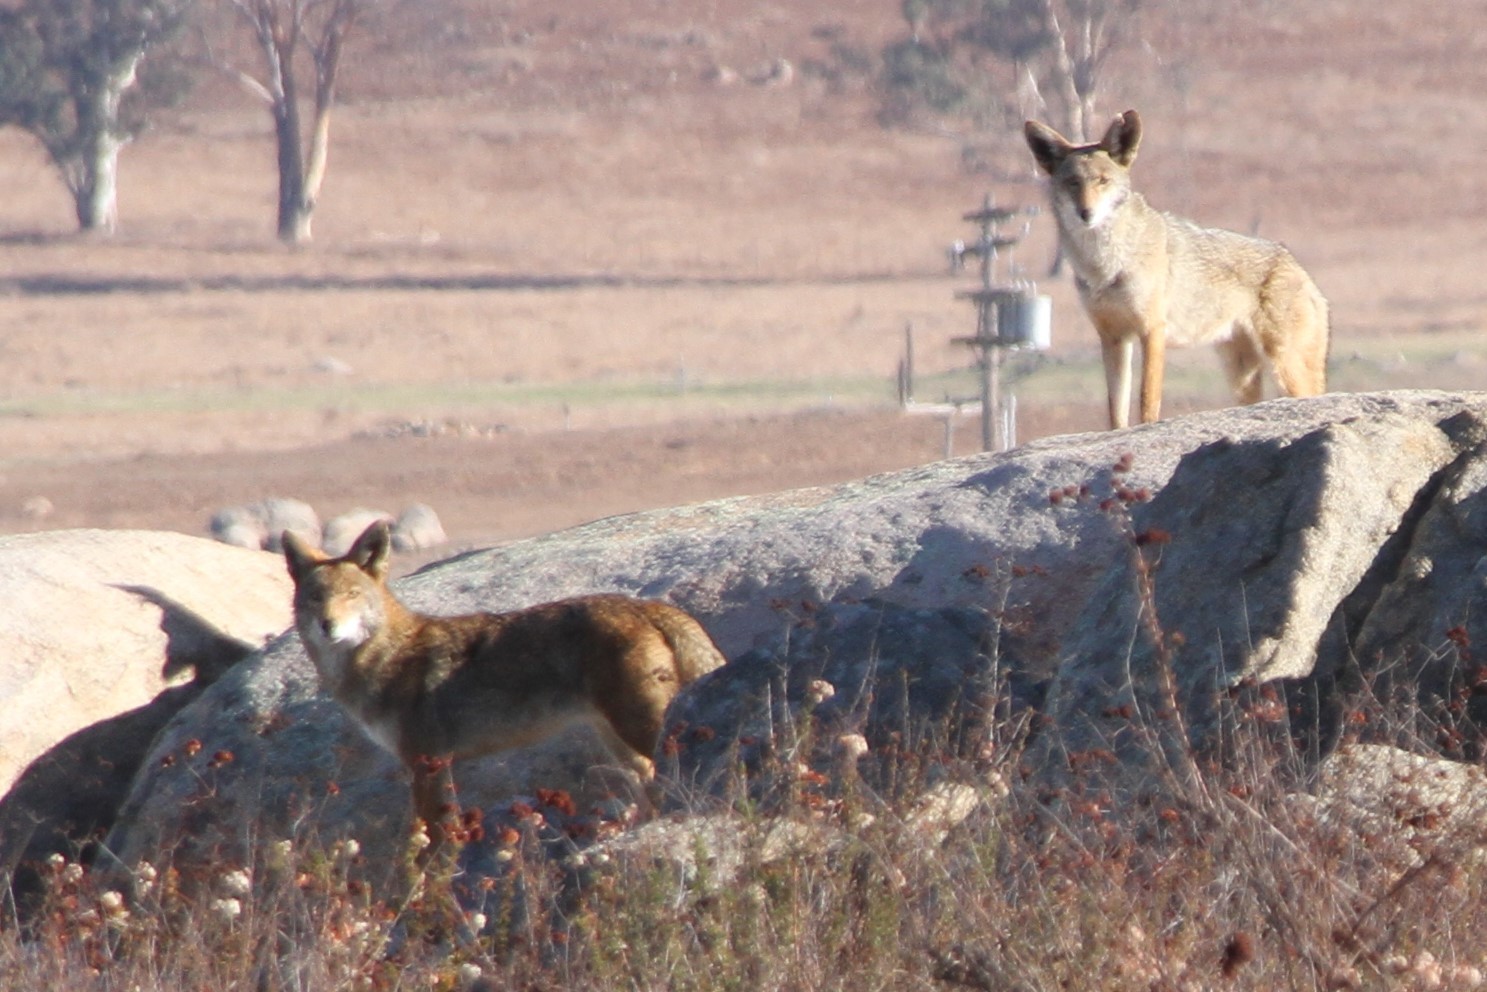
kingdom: Animalia
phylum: Chordata
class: Mammalia
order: Carnivora
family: Canidae
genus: Canis
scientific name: Canis latrans
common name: Coyote
